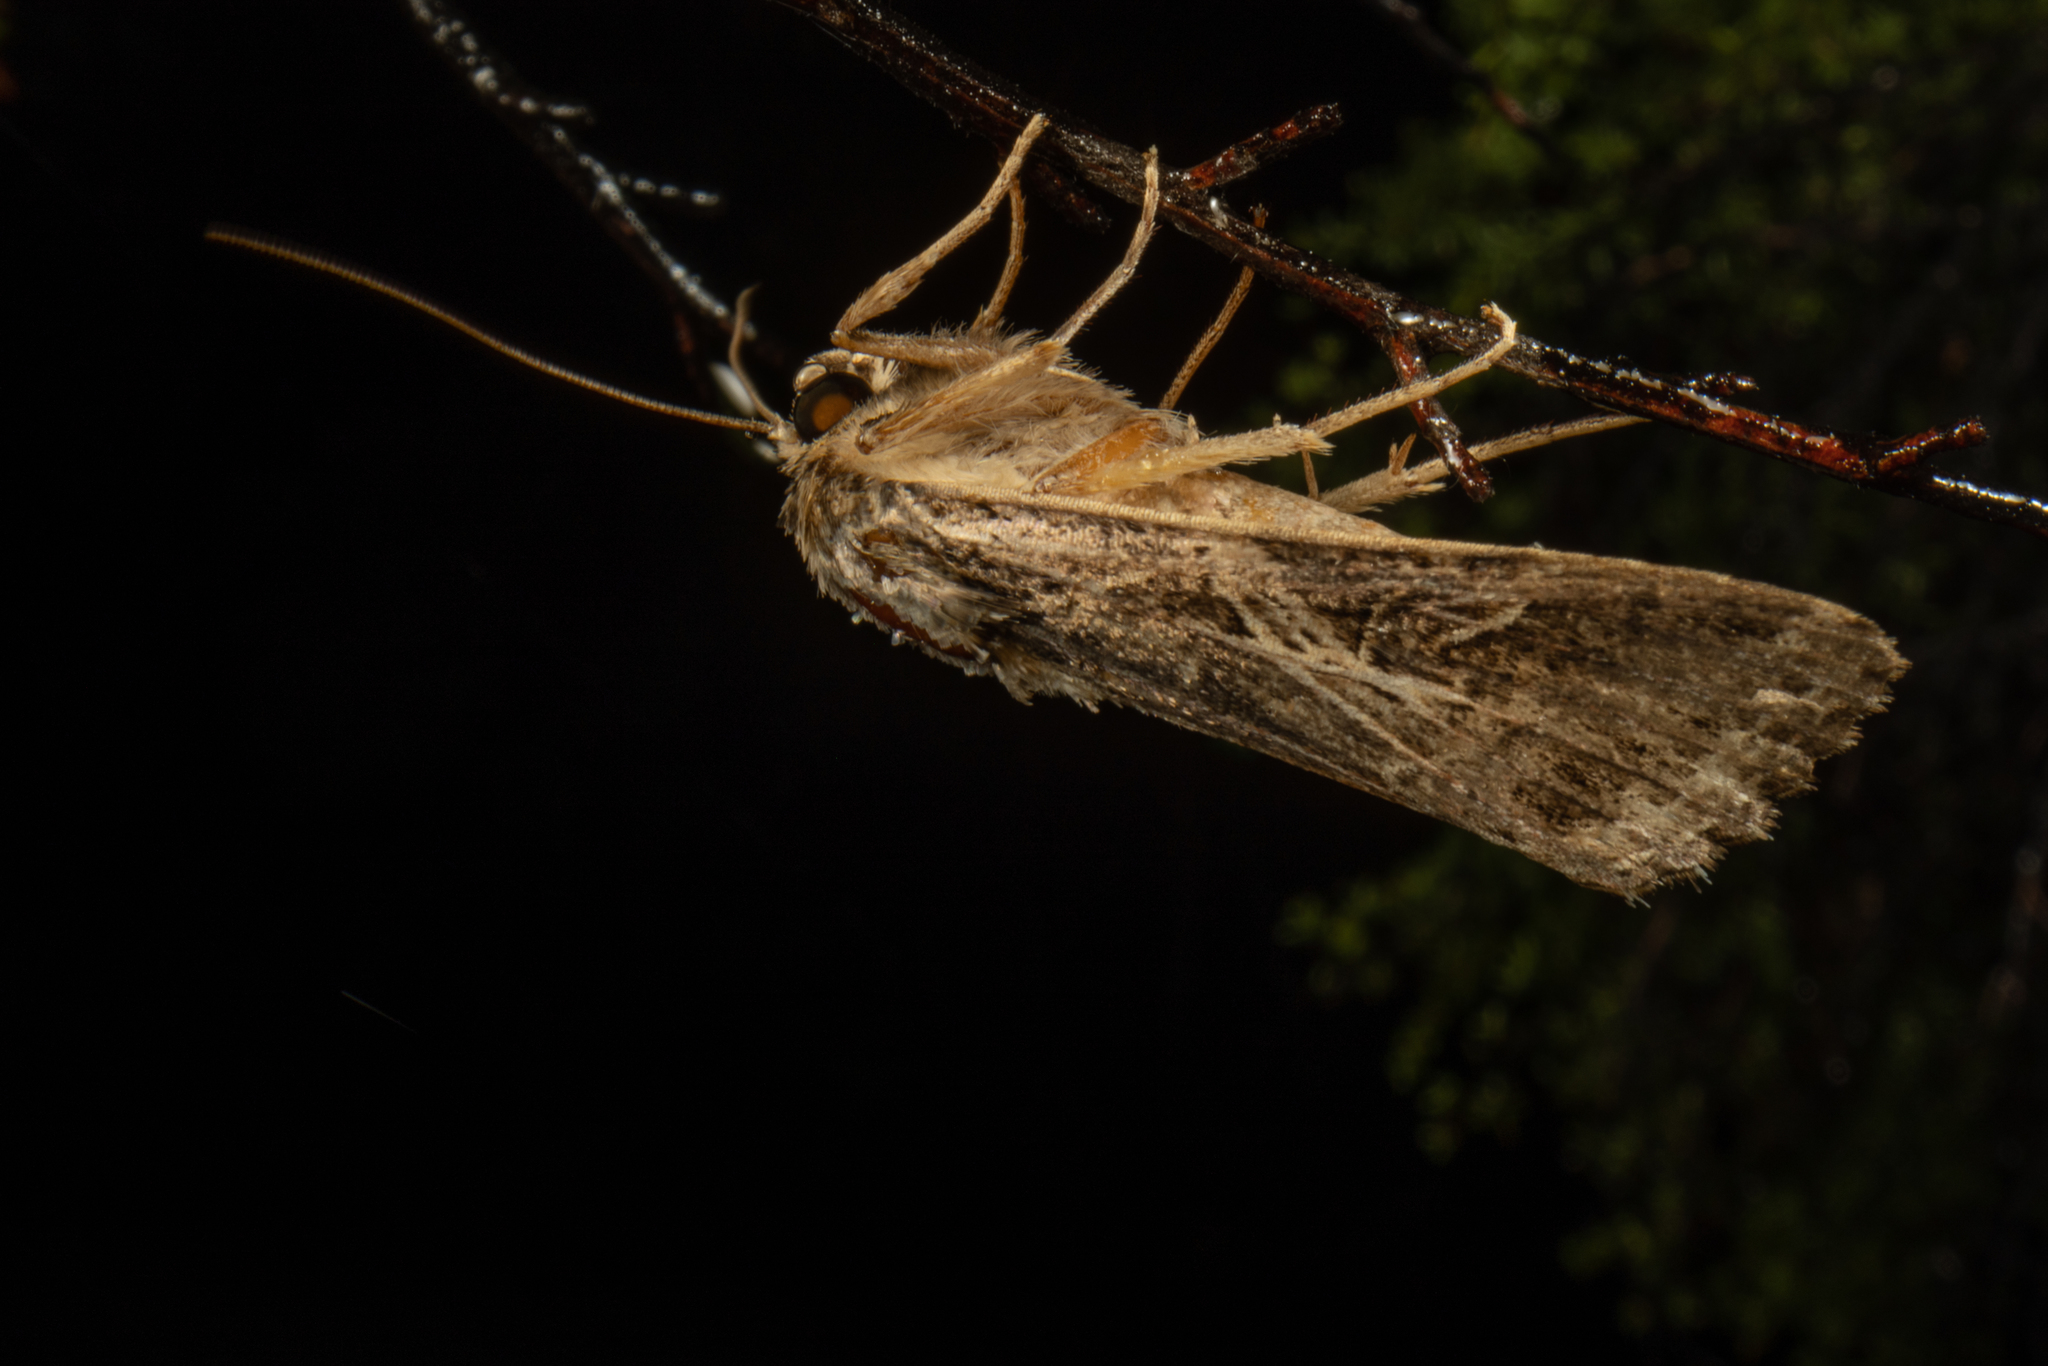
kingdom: Animalia
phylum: Arthropoda
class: Insecta
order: Lepidoptera
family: Noctuidae
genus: Spodoptera
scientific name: Spodoptera litura
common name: Asian cotton leafworm
